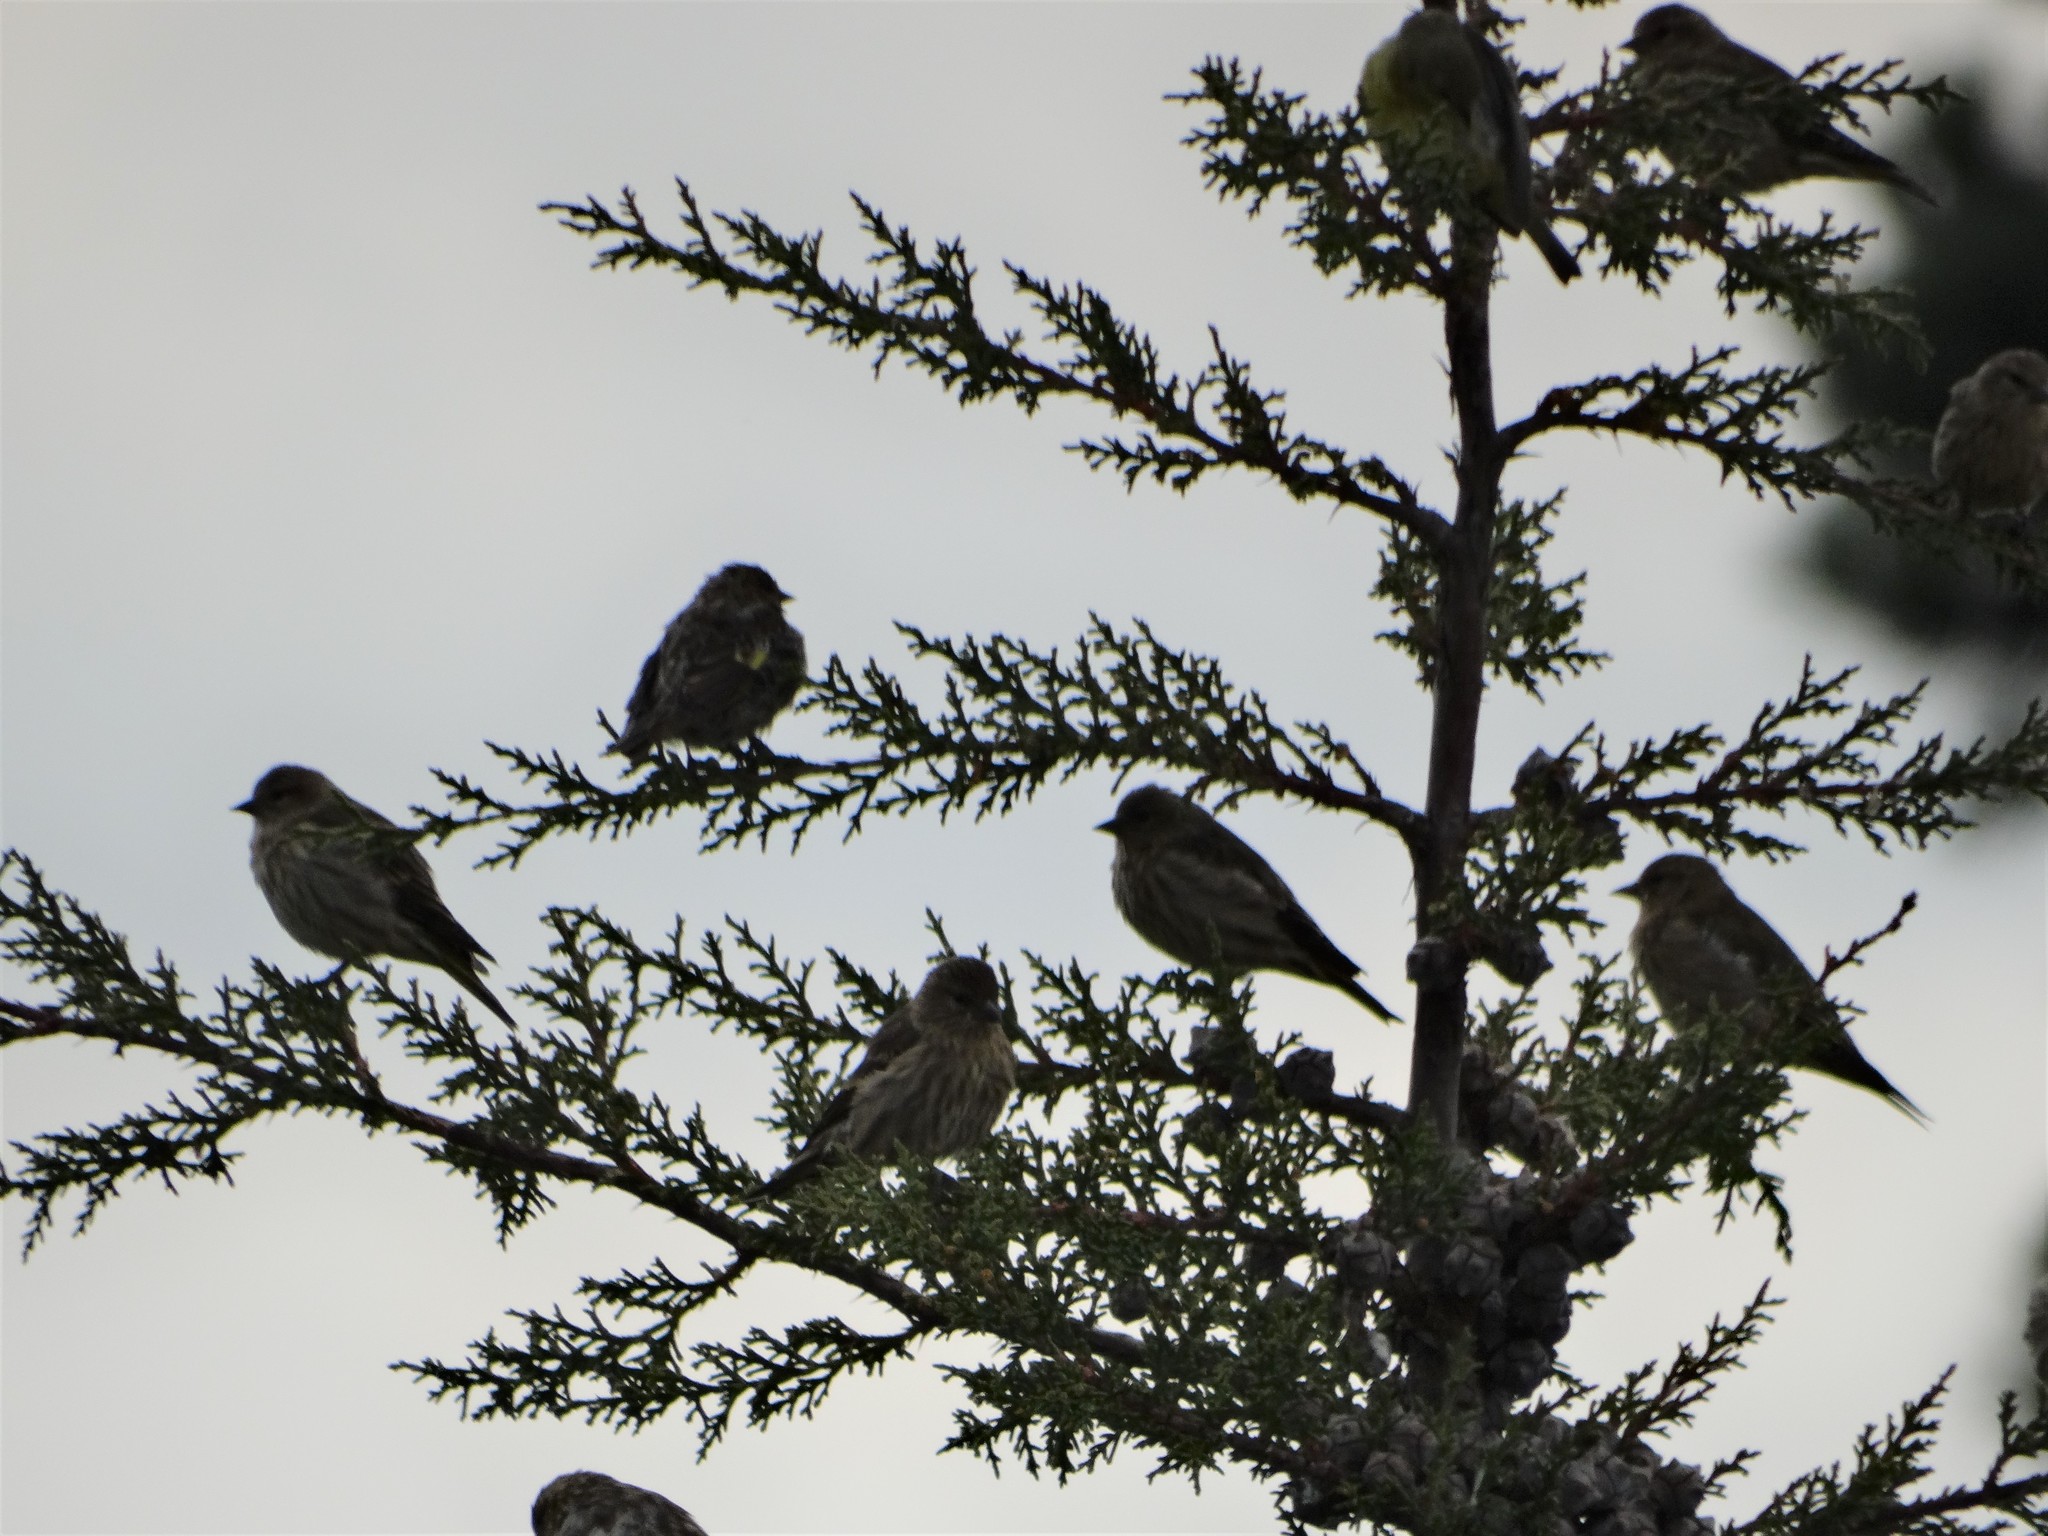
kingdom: Animalia
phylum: Chordata
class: Aves
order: Passeriformes
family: Fringillidae
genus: Spinus
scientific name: Spinus pinus
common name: Pine siskin
